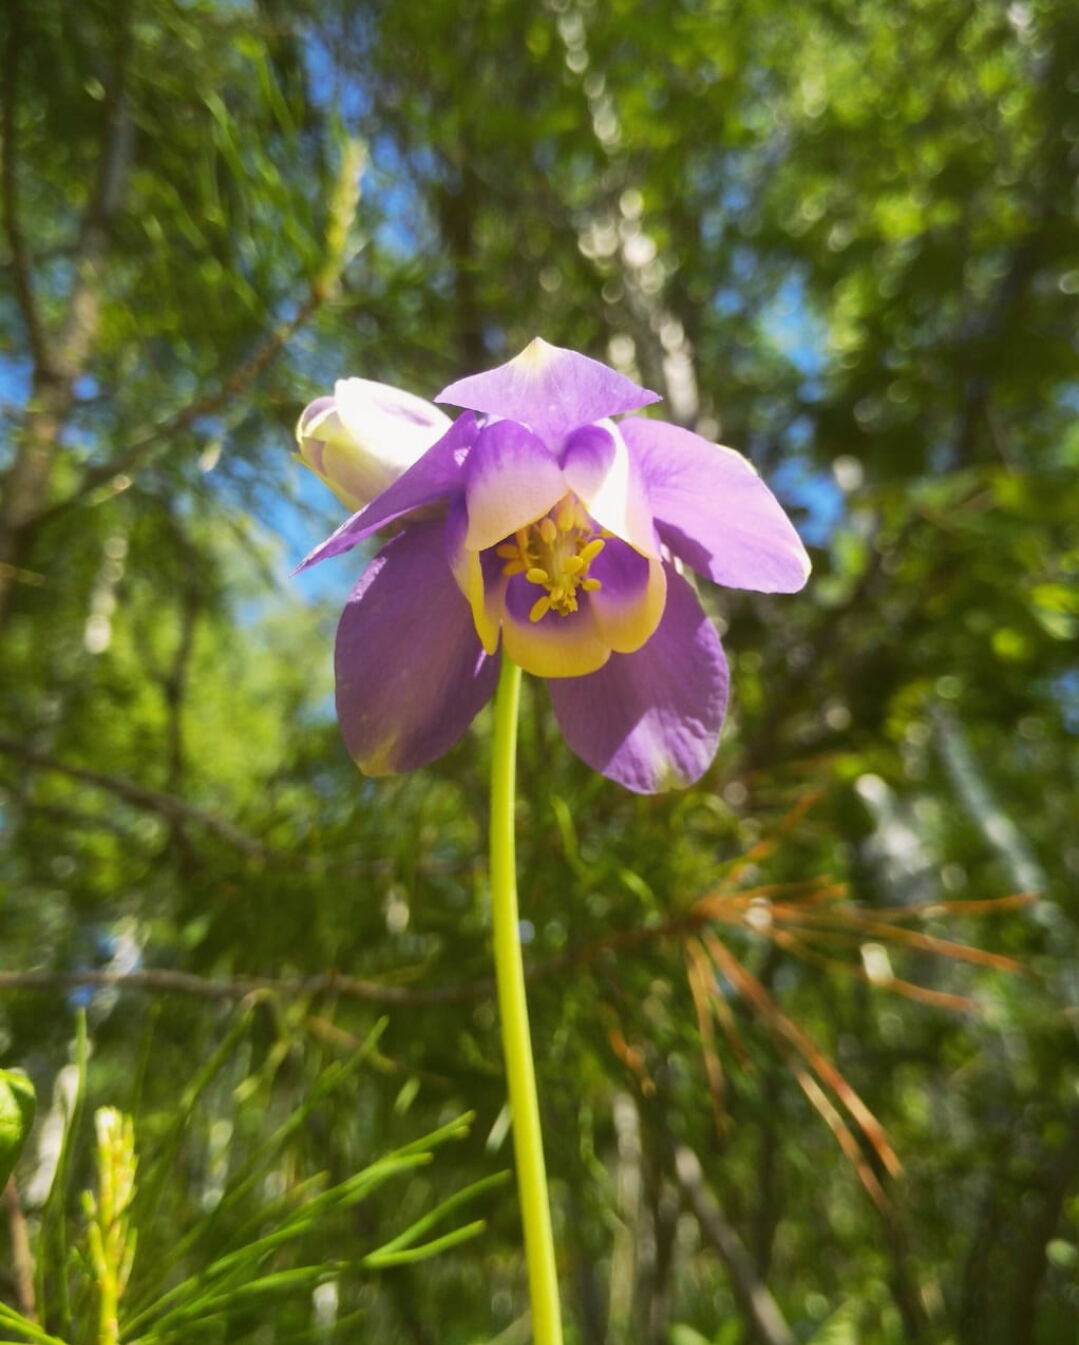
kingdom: Plantae
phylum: Tracheophyta
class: Magnoliopsida
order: Ranunculales
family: Ranunculaceae
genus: Aquilegia
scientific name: Aquilegia sibirica
